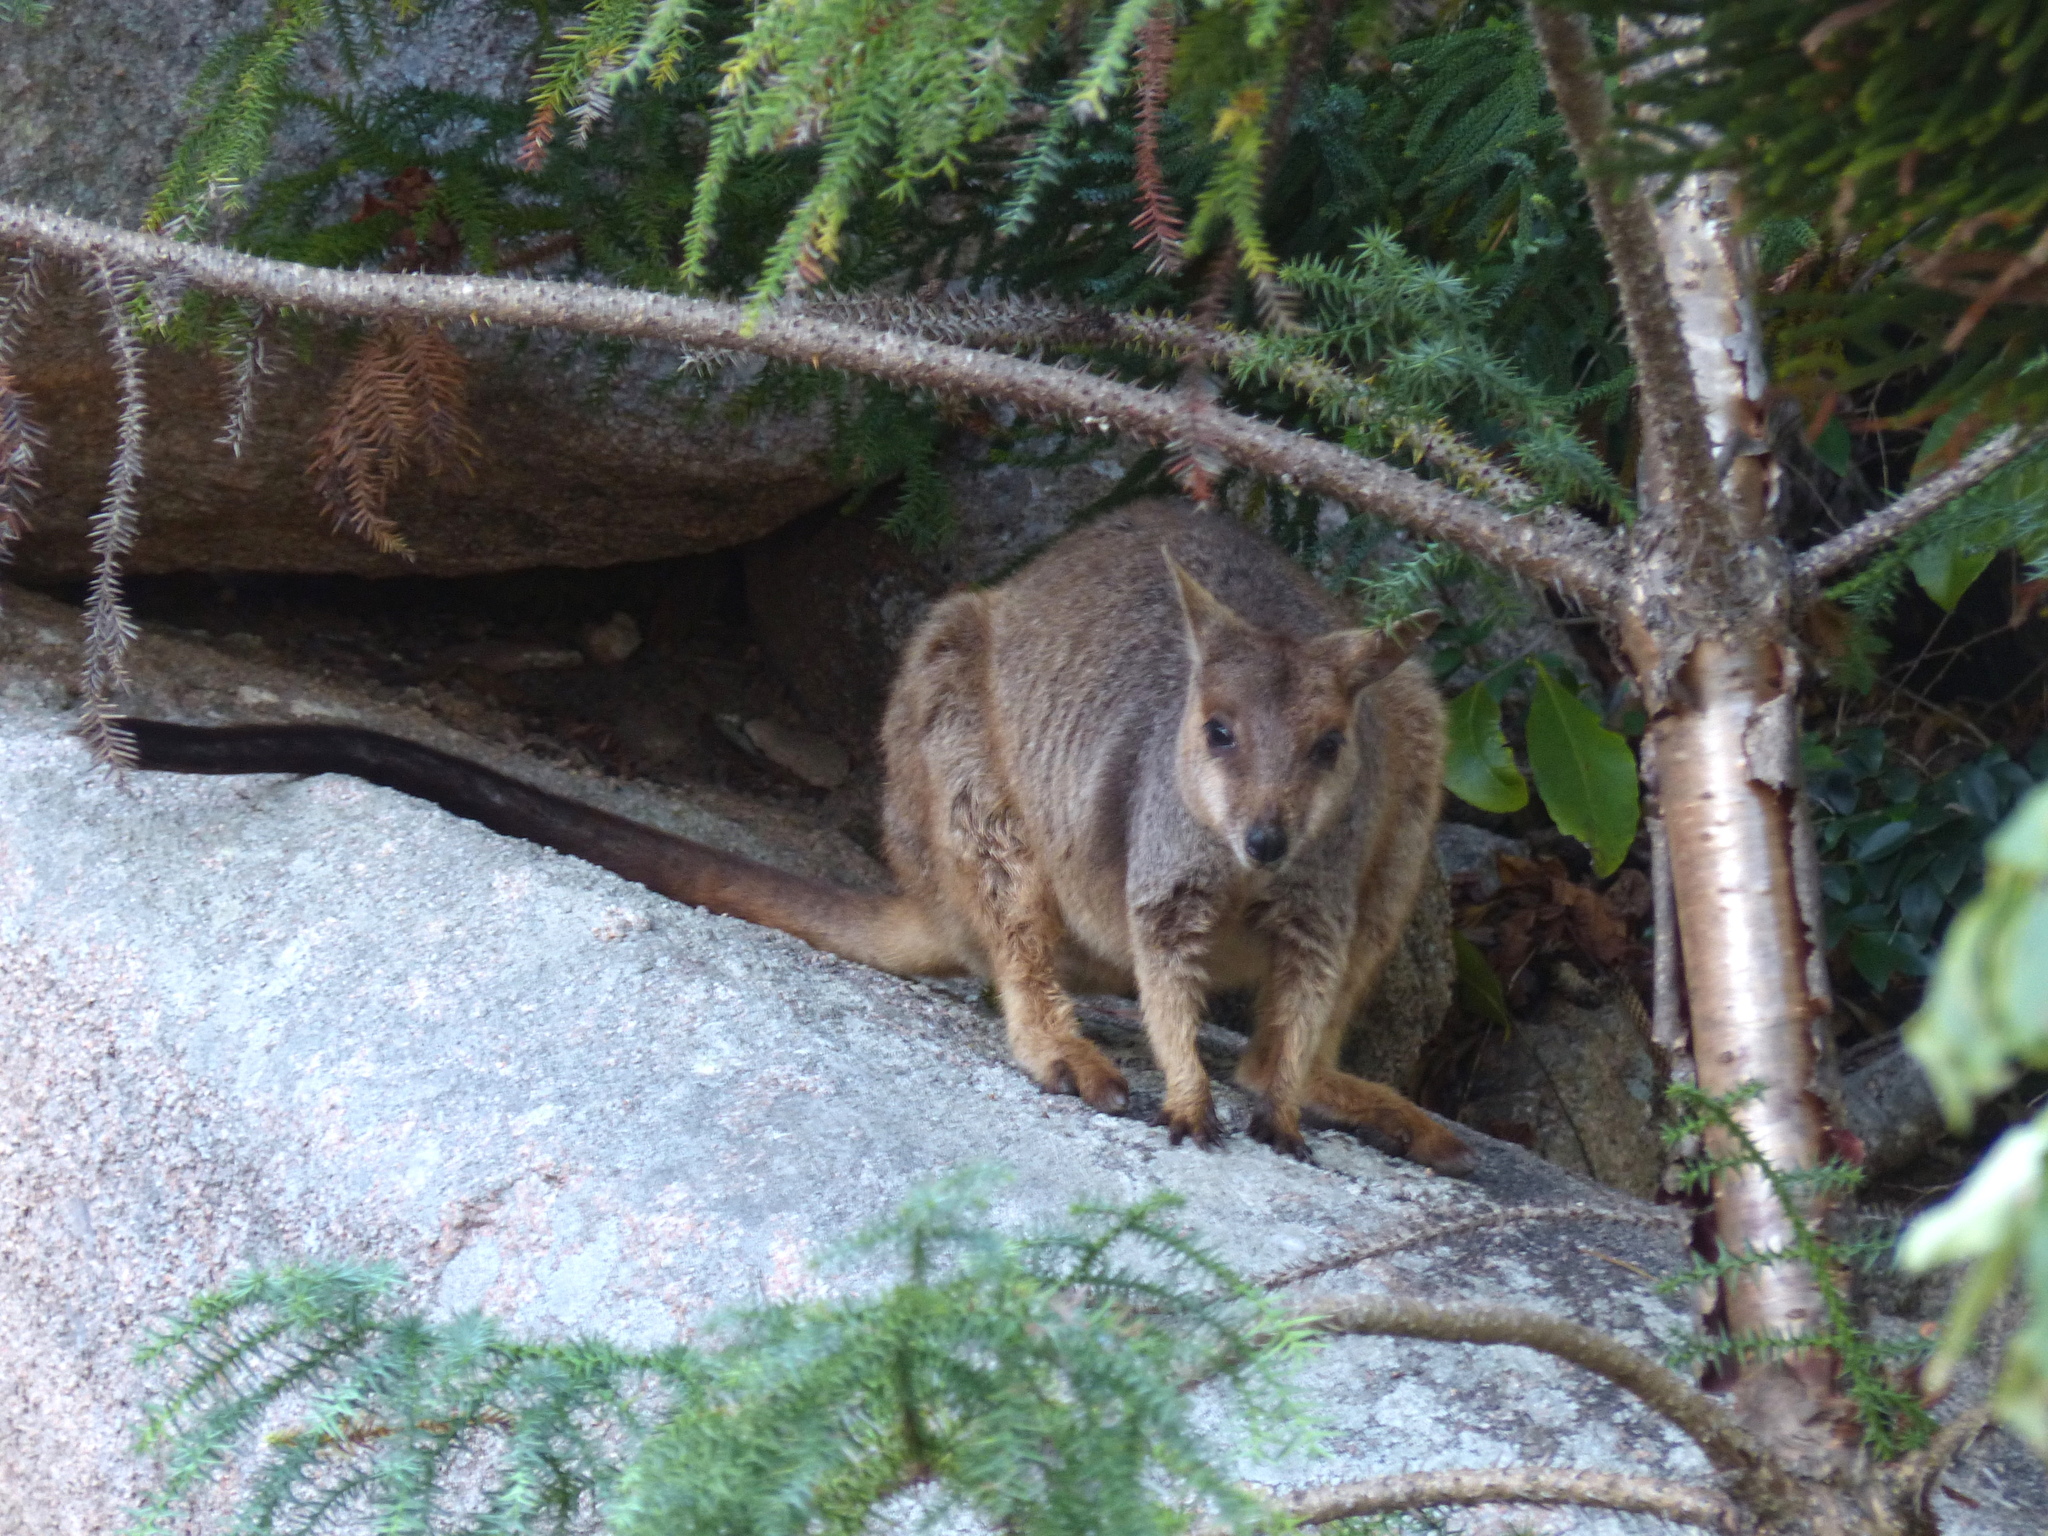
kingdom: Animalia
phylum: Chordata
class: Mammalia
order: Diprotodontia
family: Macropodidae
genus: Petrogale
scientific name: Petrogale assimilis
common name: Allied rock wallaby
